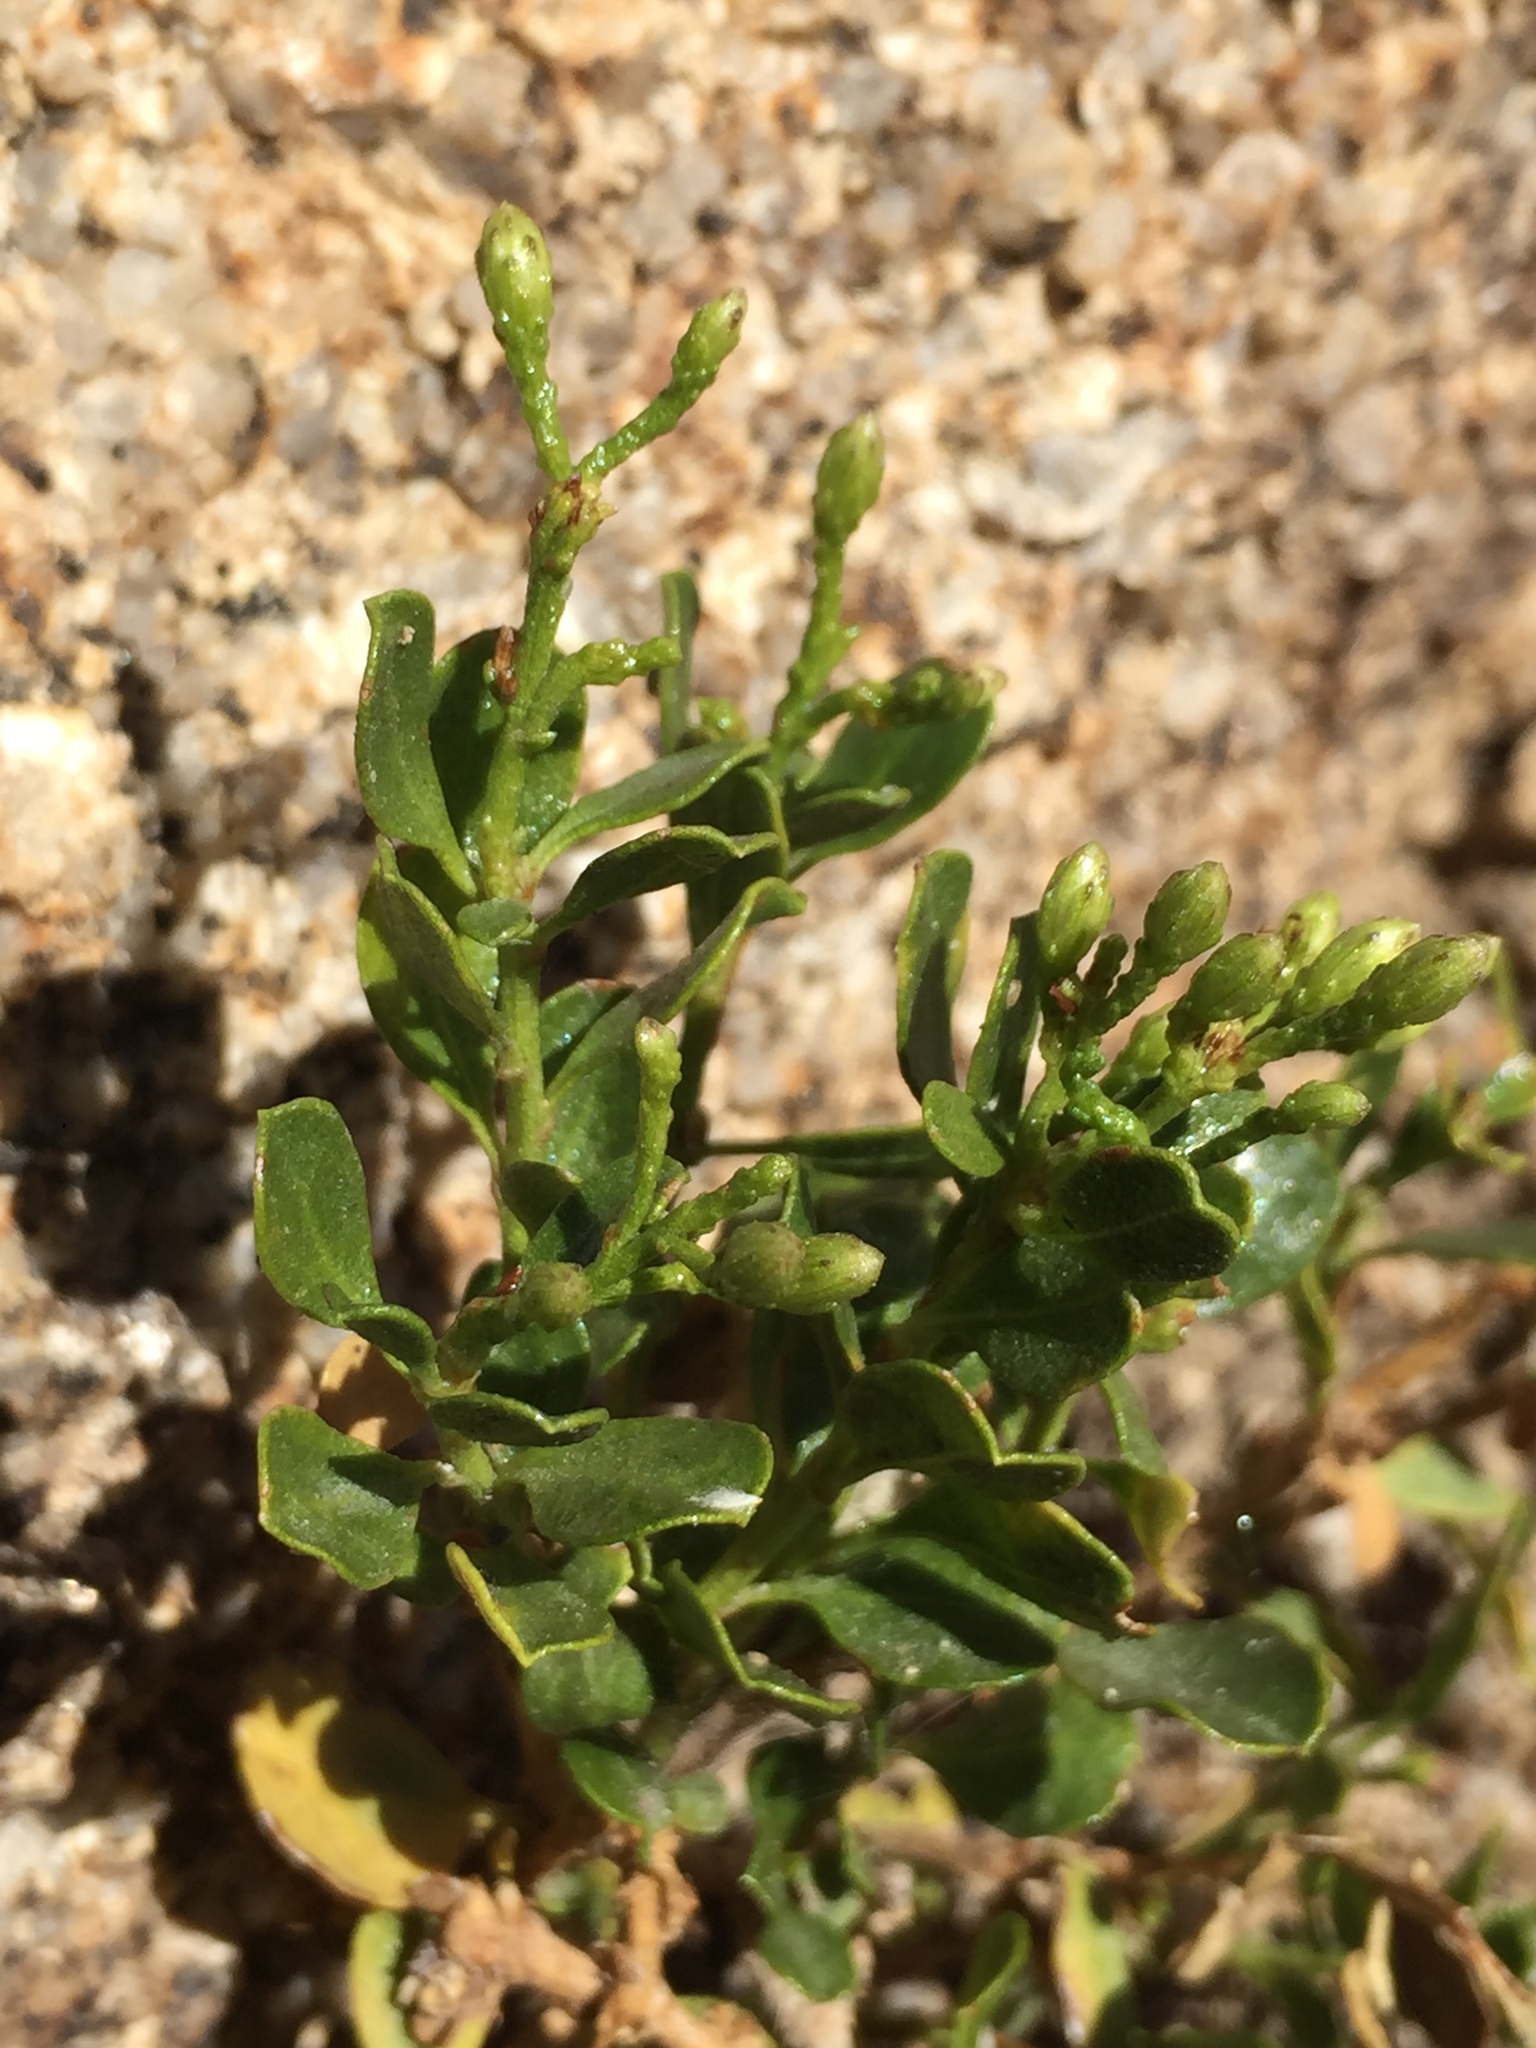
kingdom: Plantae
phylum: Tracheophyta
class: Magnoliopsida
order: Asterales
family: Asteraceae
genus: Ericameria
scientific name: Ericameria cuneata
